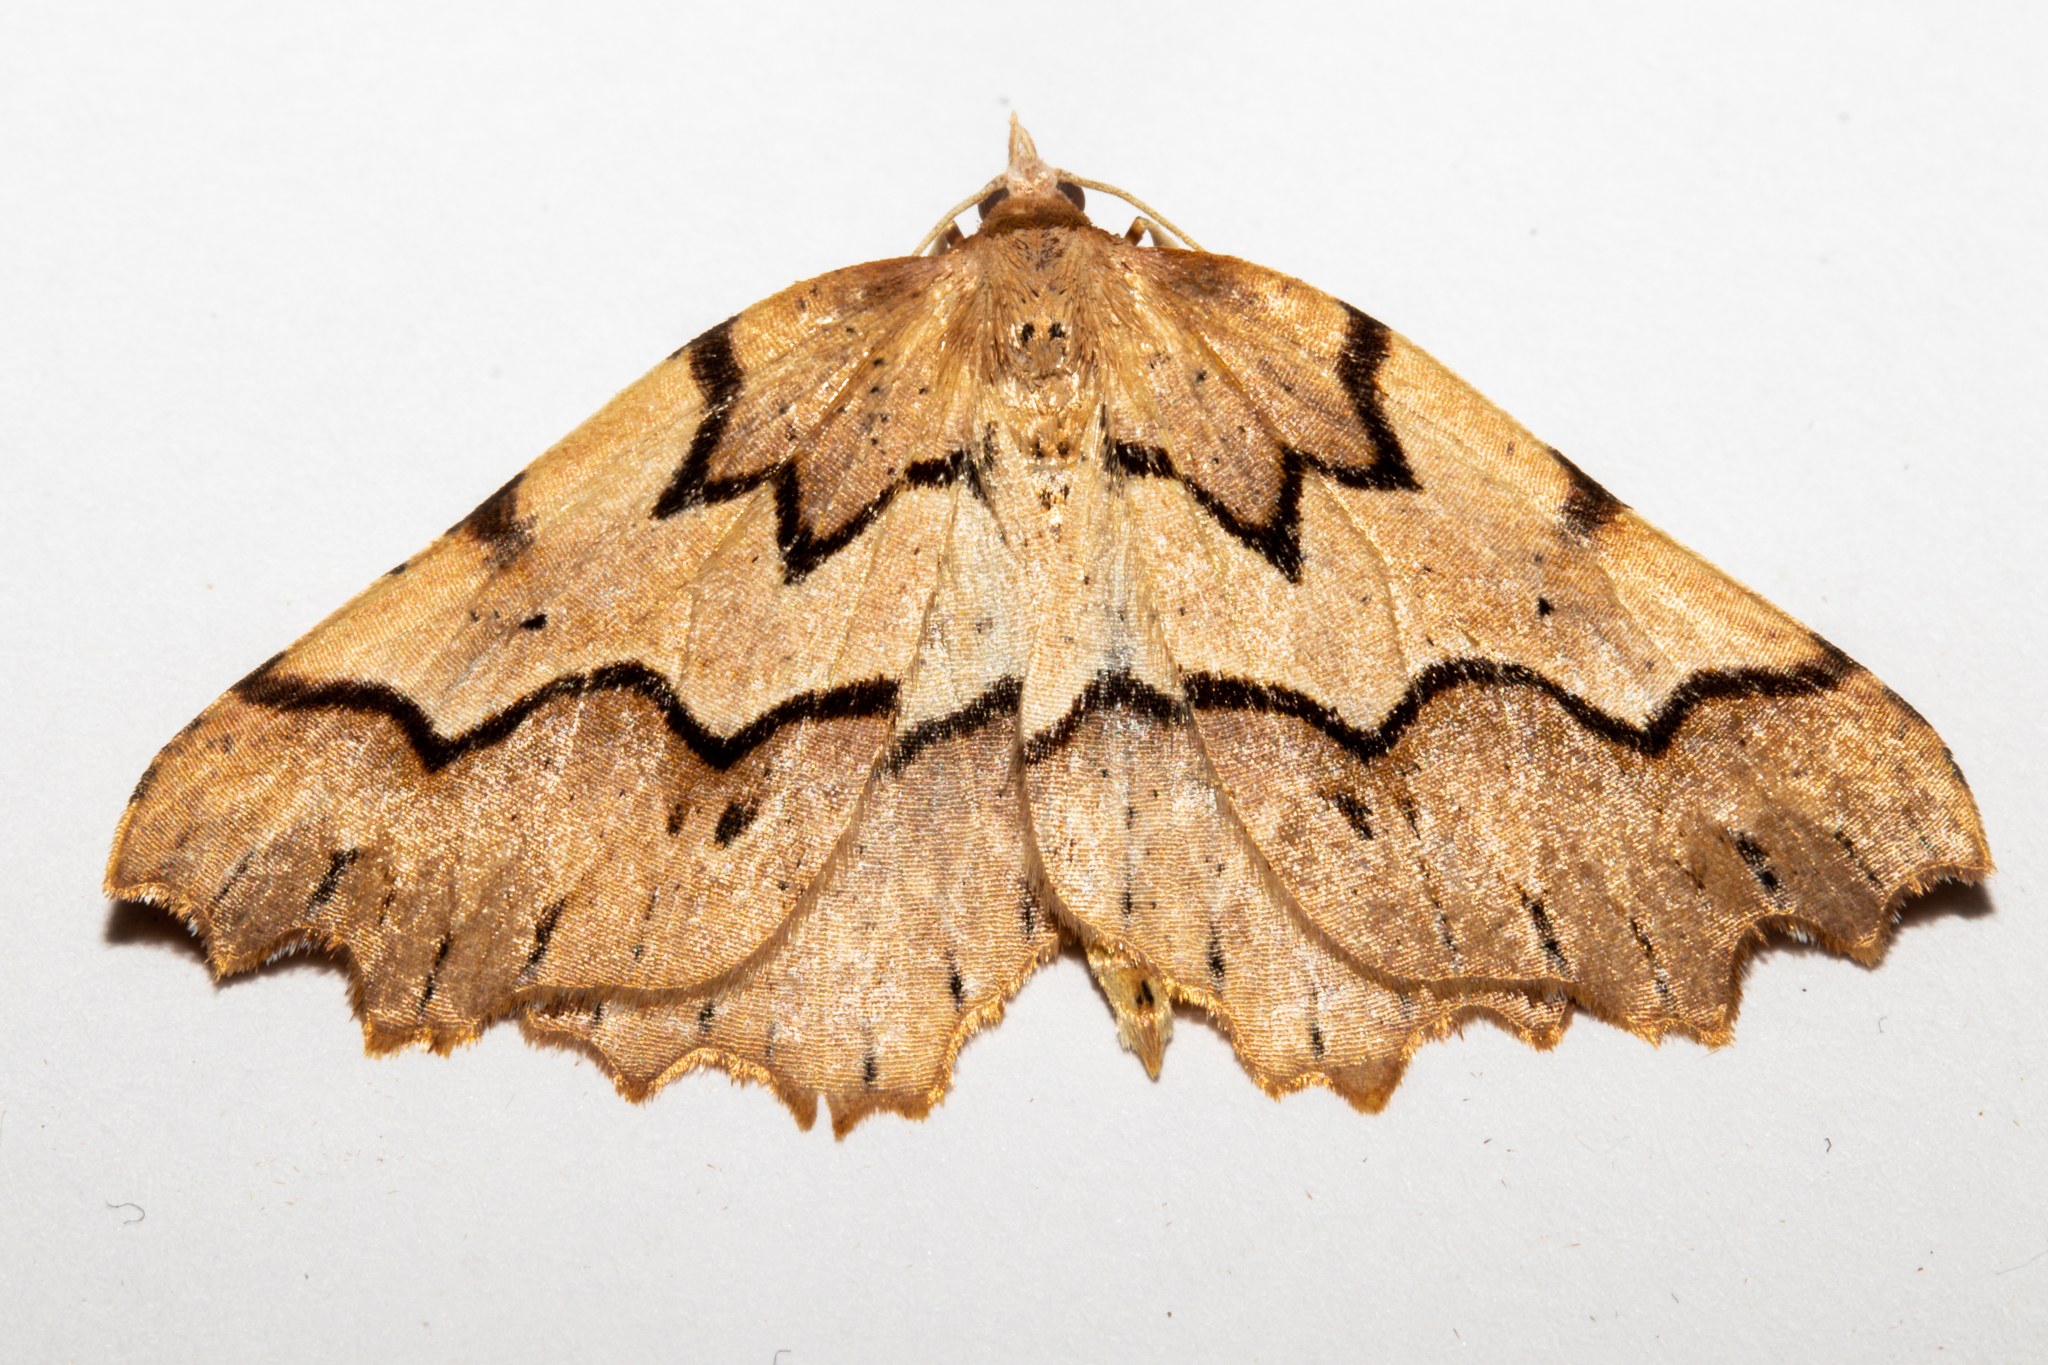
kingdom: Animalia
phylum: Arthropoda
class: Insecta
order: Lepidoptera
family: Geometridae
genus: Ischalis
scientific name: Ischalis fortinata
